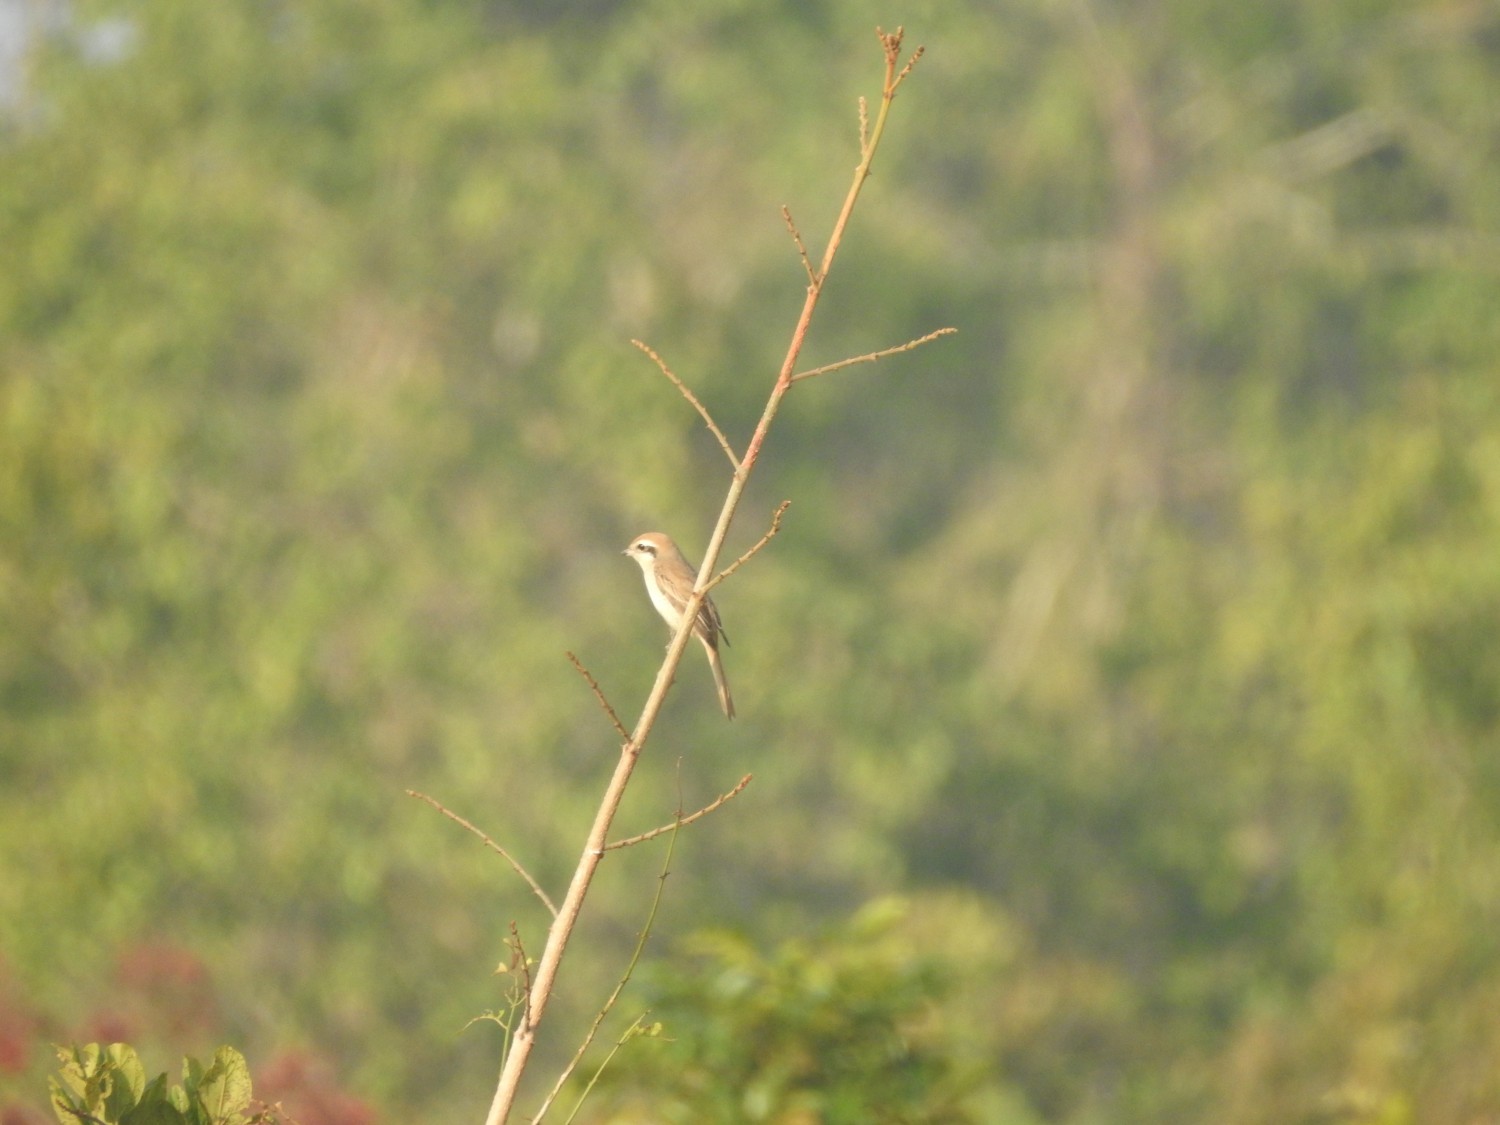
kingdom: Animalia
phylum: Chordata
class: Aves
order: Passeriformes
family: Laniidae
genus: Lanius
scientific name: Lanius cristatus
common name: Brown shrike
